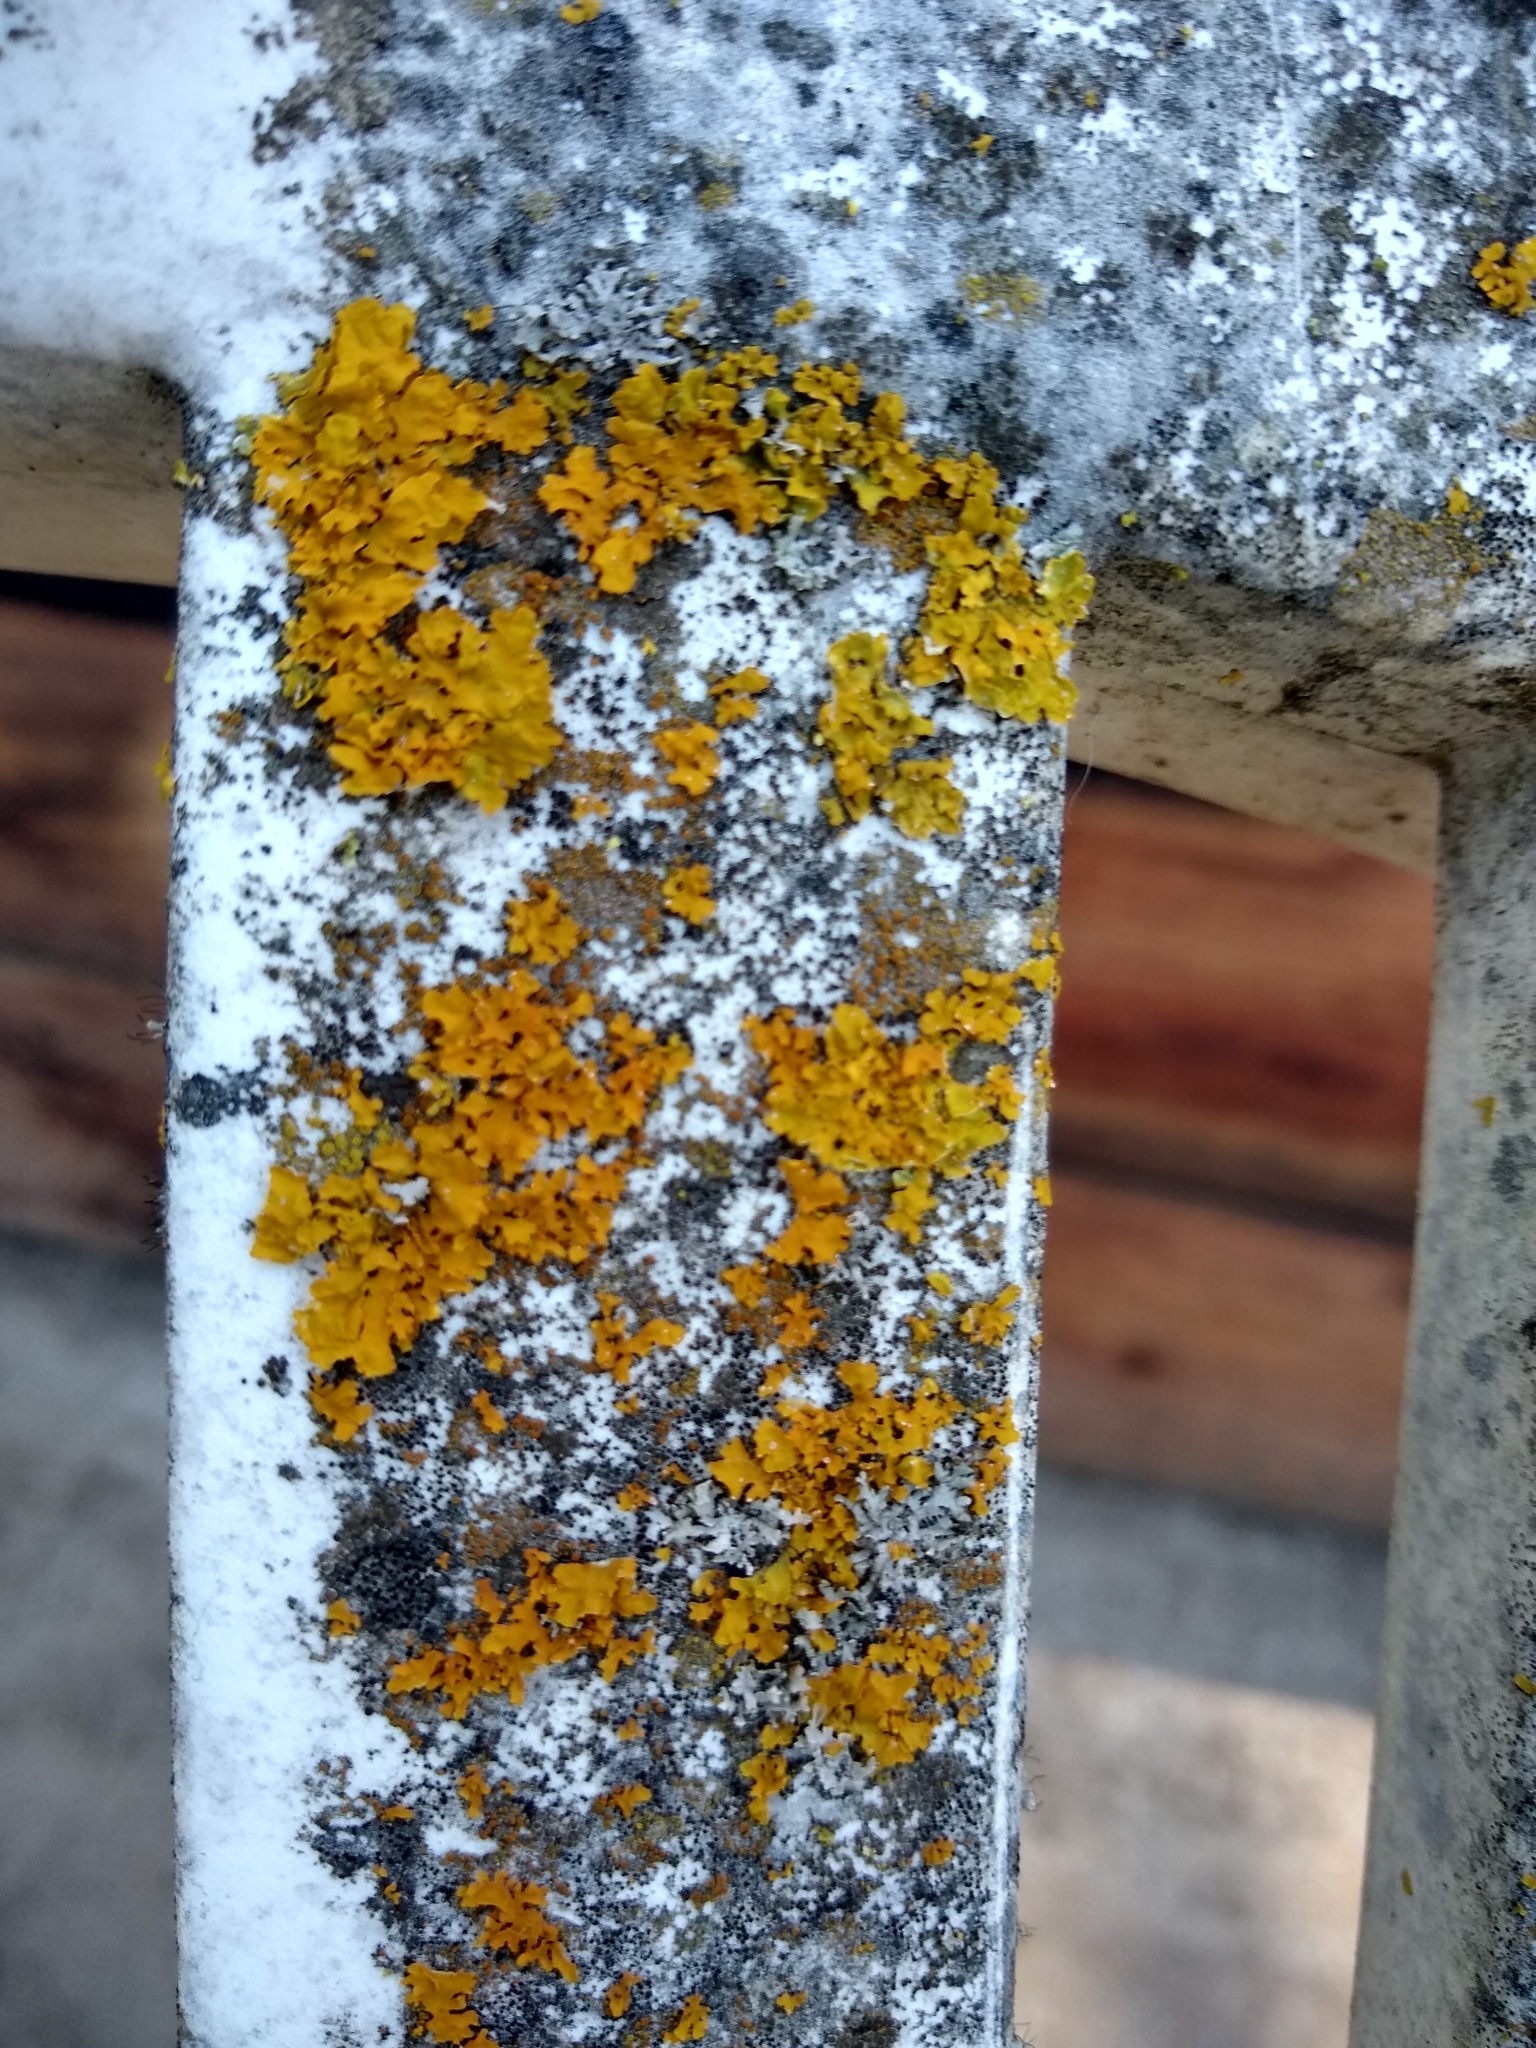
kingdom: Fungi
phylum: Ascomycota
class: Lecanoromycetes
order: Teloschistales
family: Teloschistaceae
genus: Xanthoria
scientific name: Xanthoria parietina
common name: Common orange lichen
